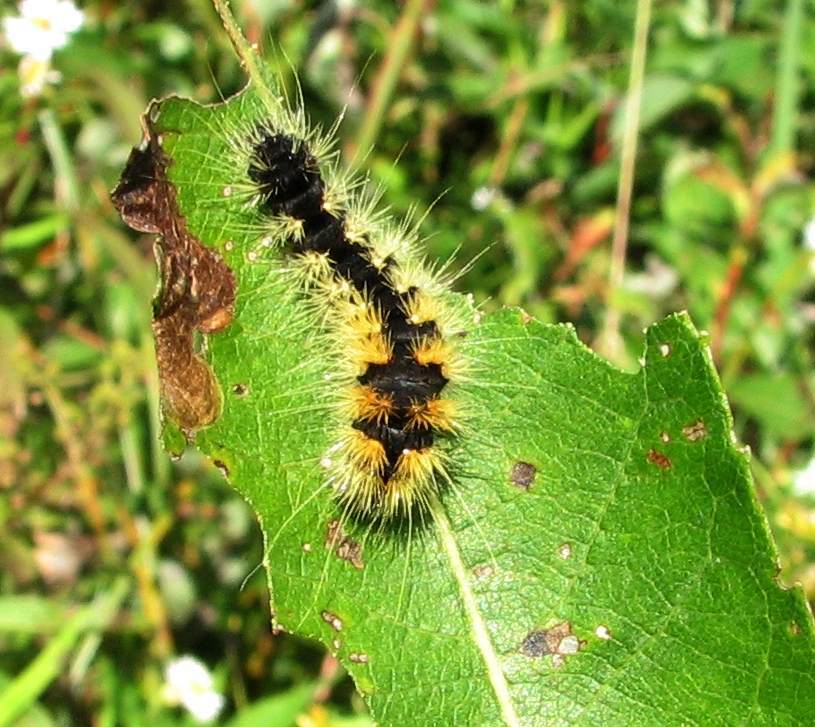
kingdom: Animalia
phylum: Arthropoda
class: Insecta
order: Lepidoptera
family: Noctuidae
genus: Acronicta
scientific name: Acronicta impressa
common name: Impressed dagger
